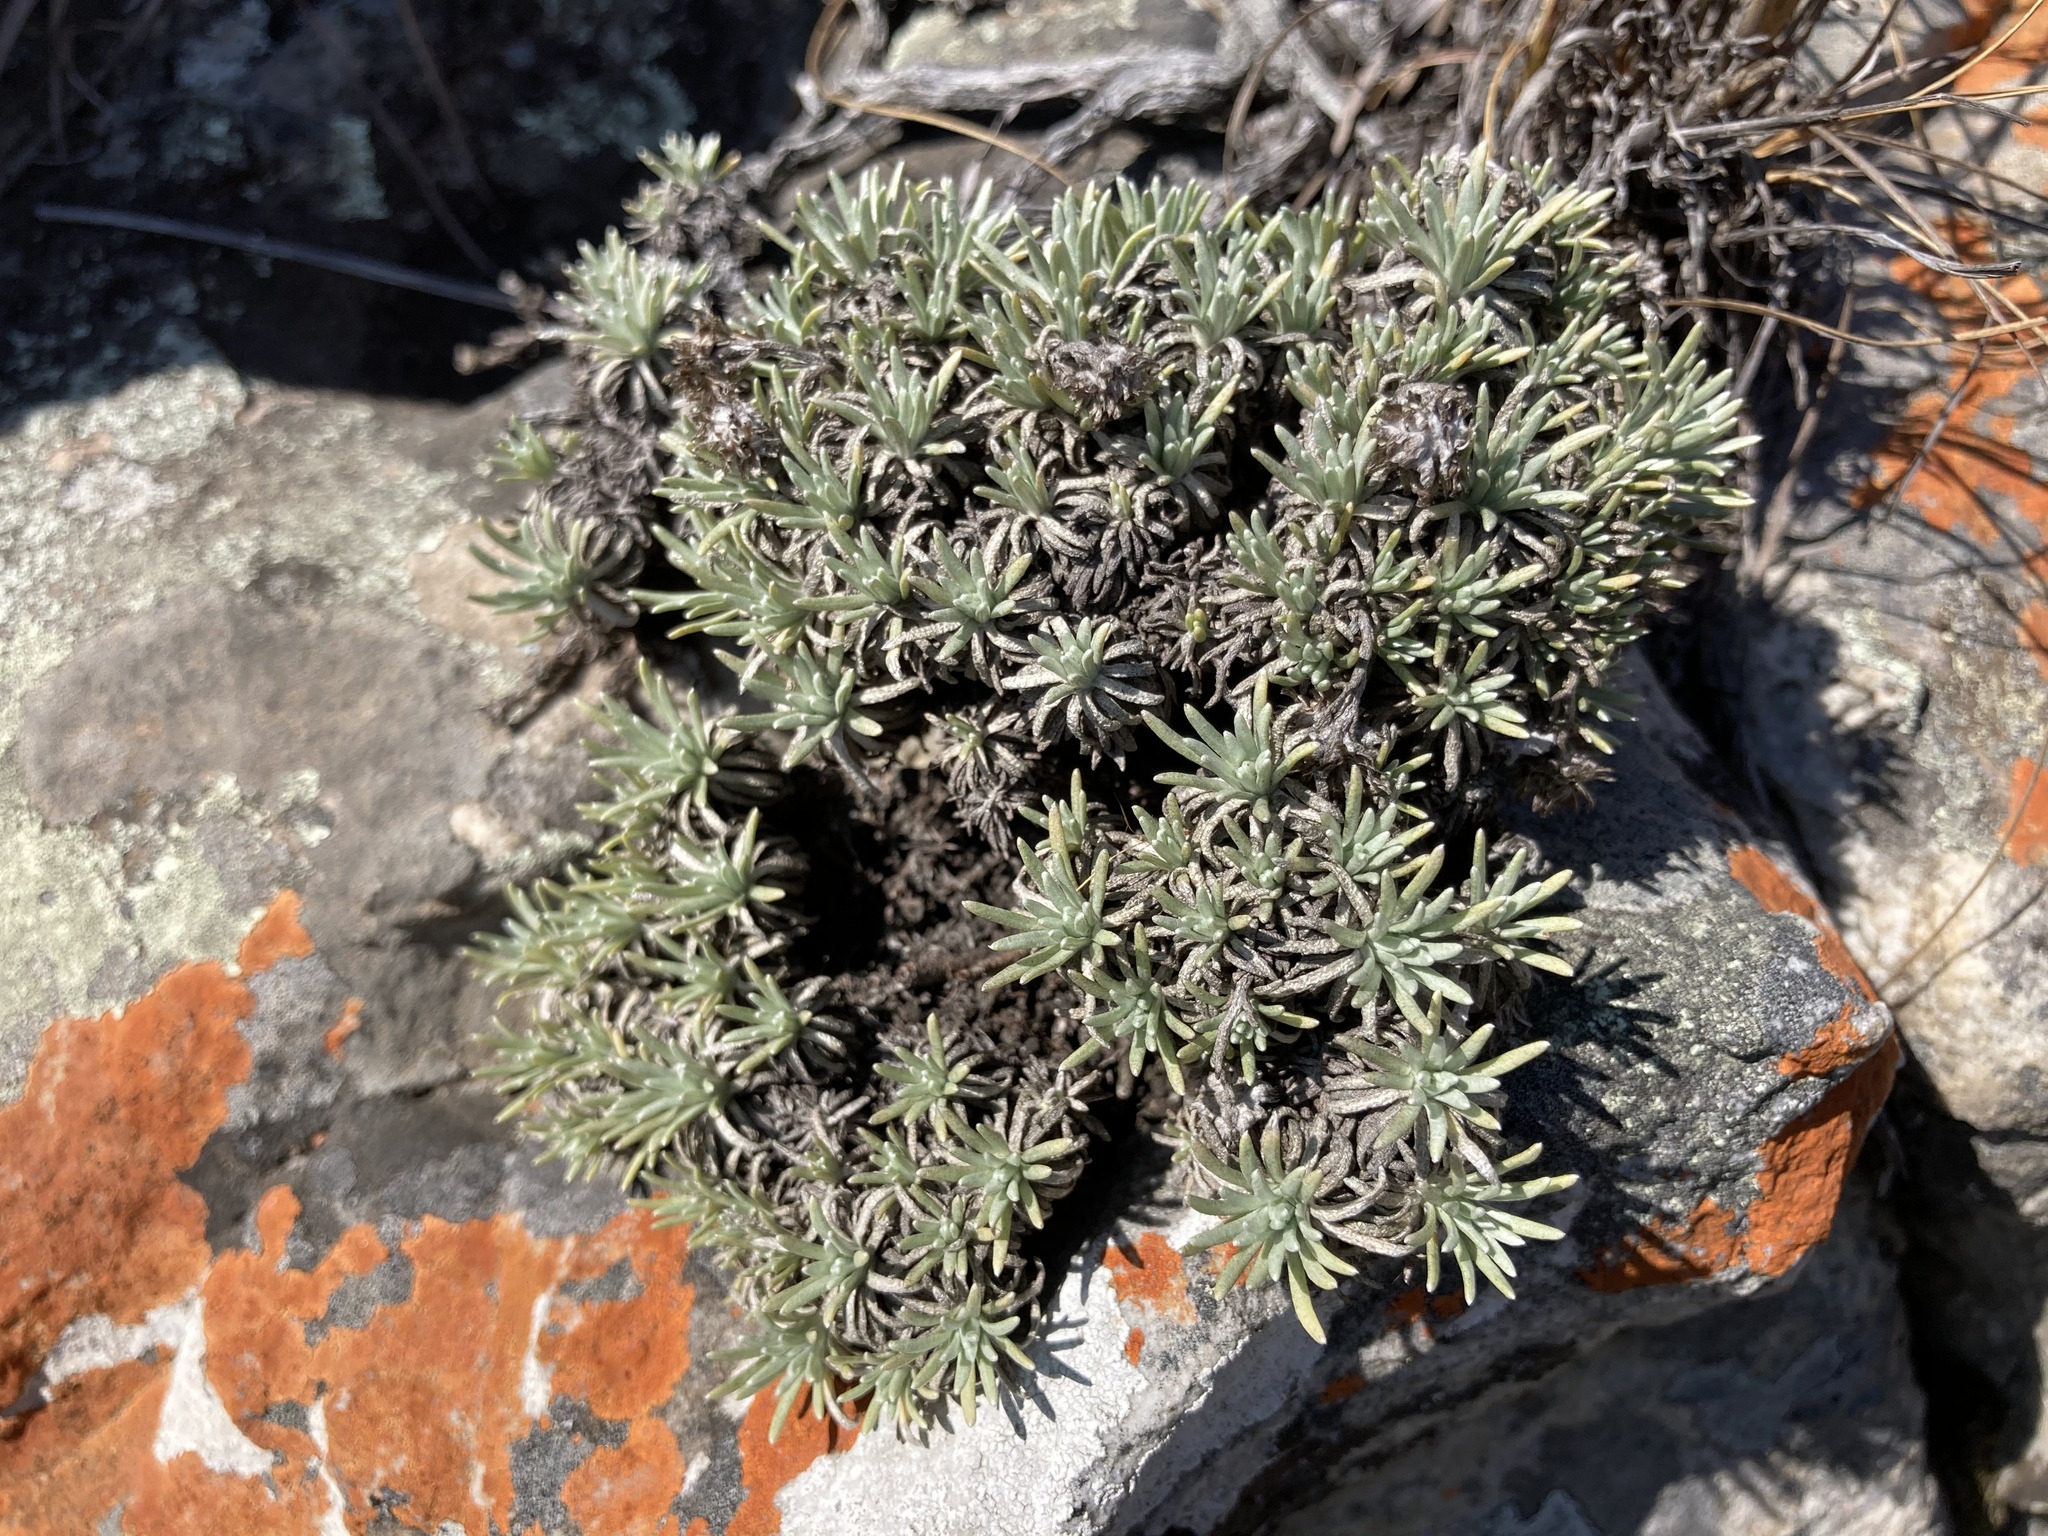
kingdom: Plantae
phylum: Tracheophyta
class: Magnoliopsida
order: Asterales
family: Asteraceae
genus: Helichrysum
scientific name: Helichrysum galpinii
